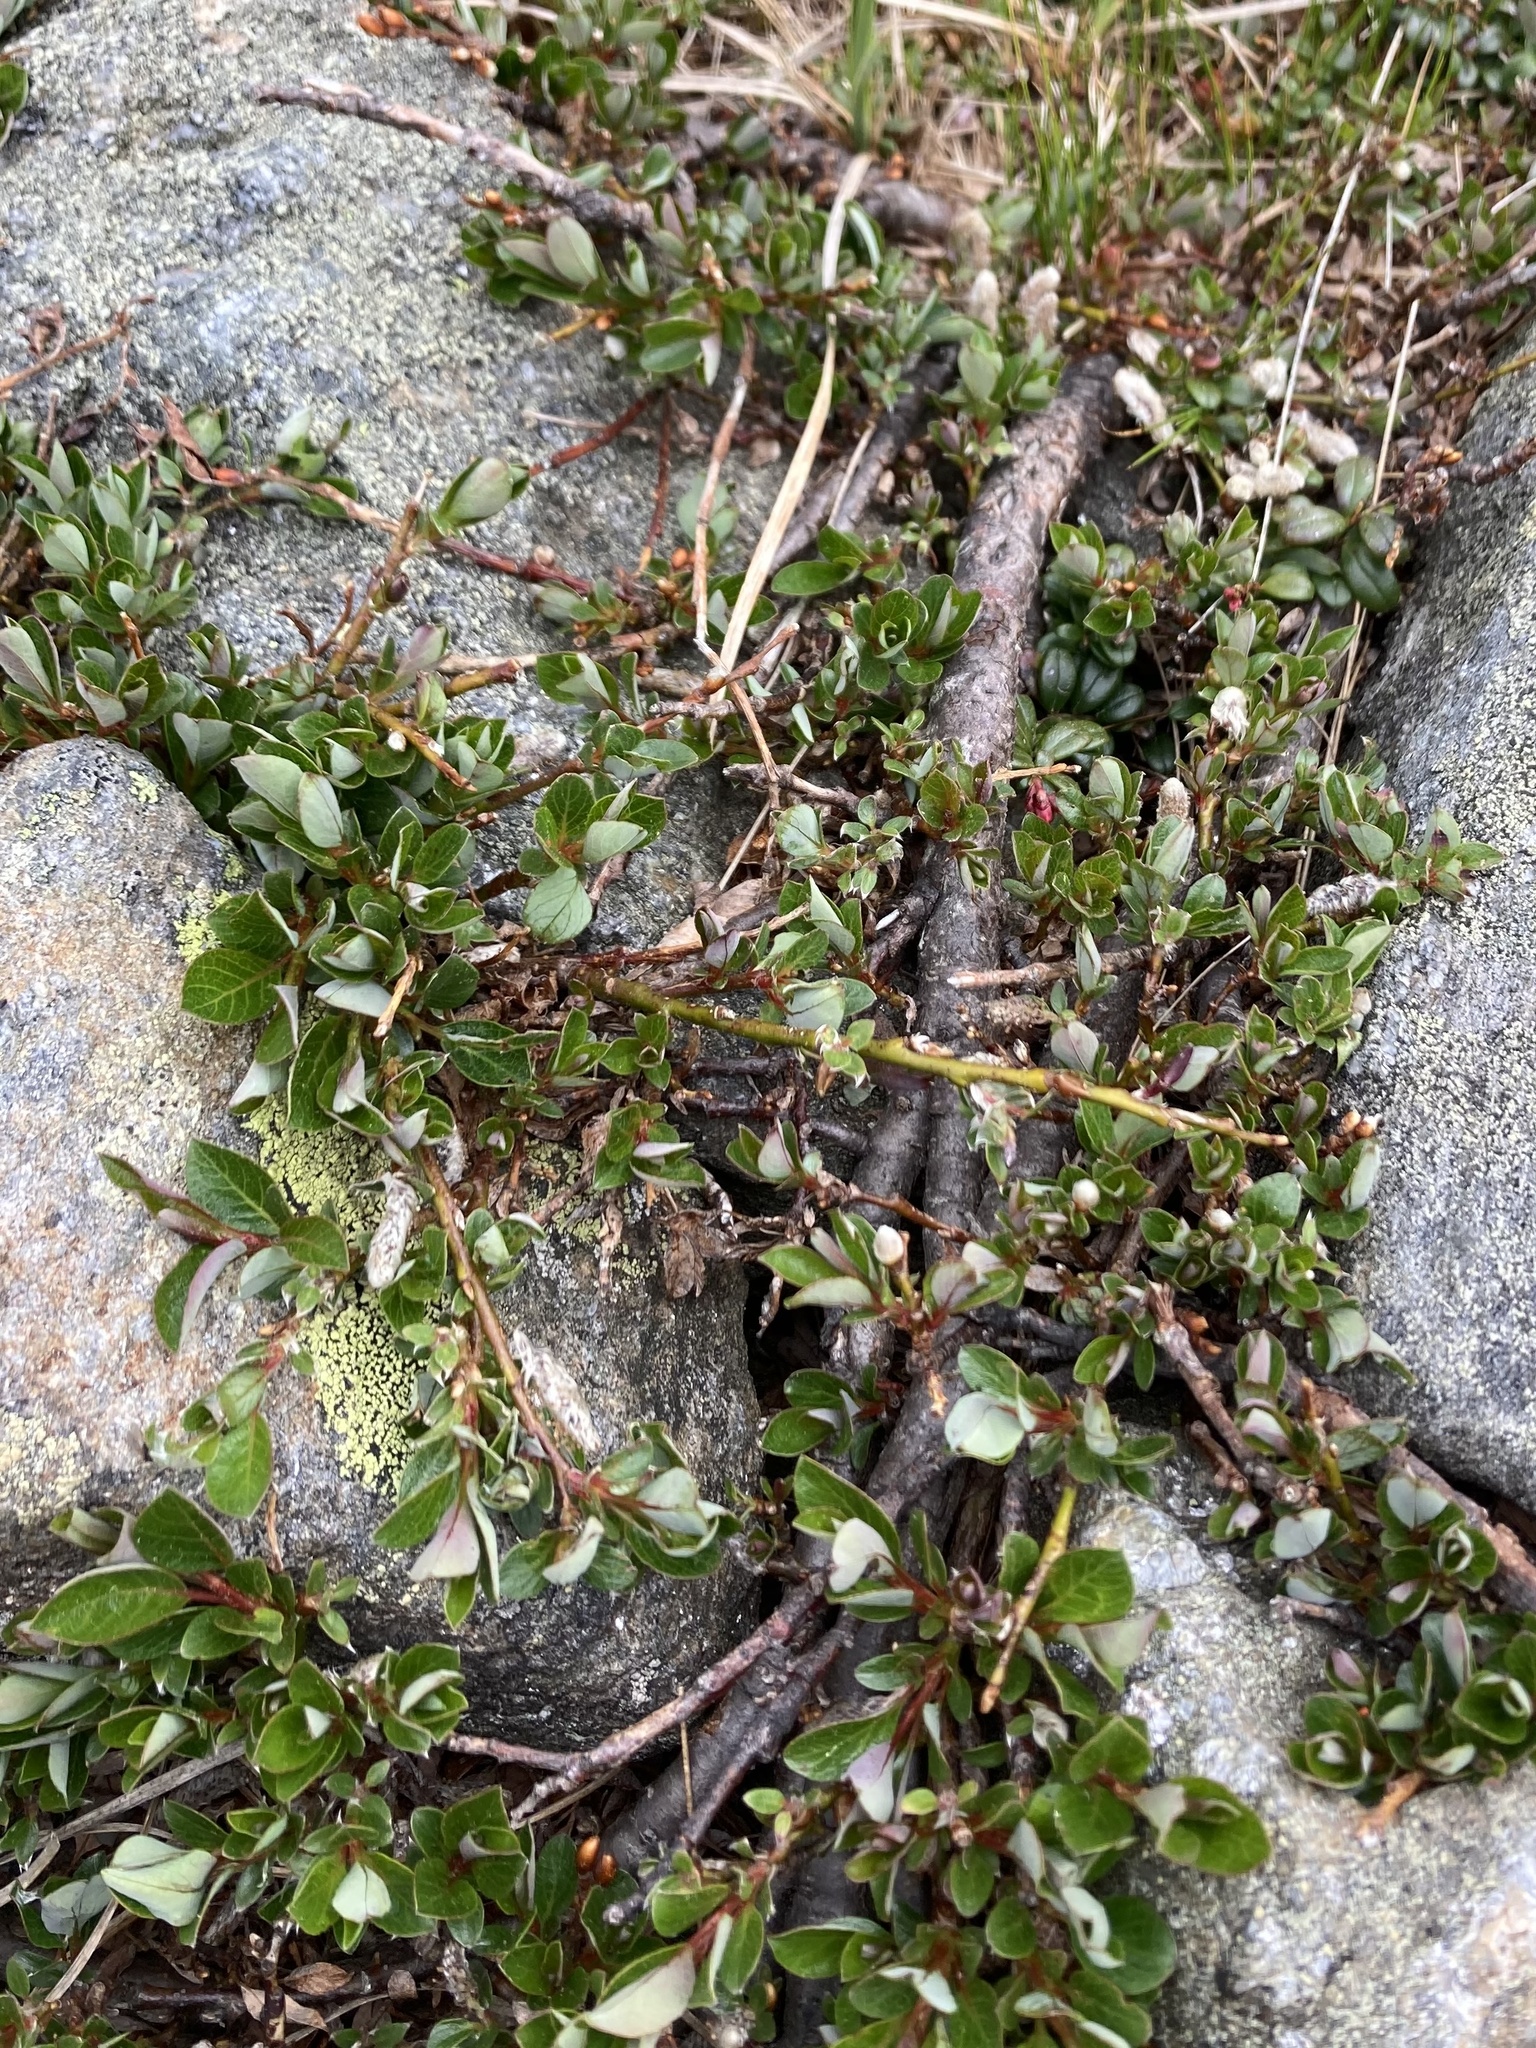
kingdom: Plantae
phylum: Tracheophyta
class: Magnoliopsida
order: Malpighiales
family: Salicaceae
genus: Salix
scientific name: Salix uva-ursi
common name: Bearberry willow
